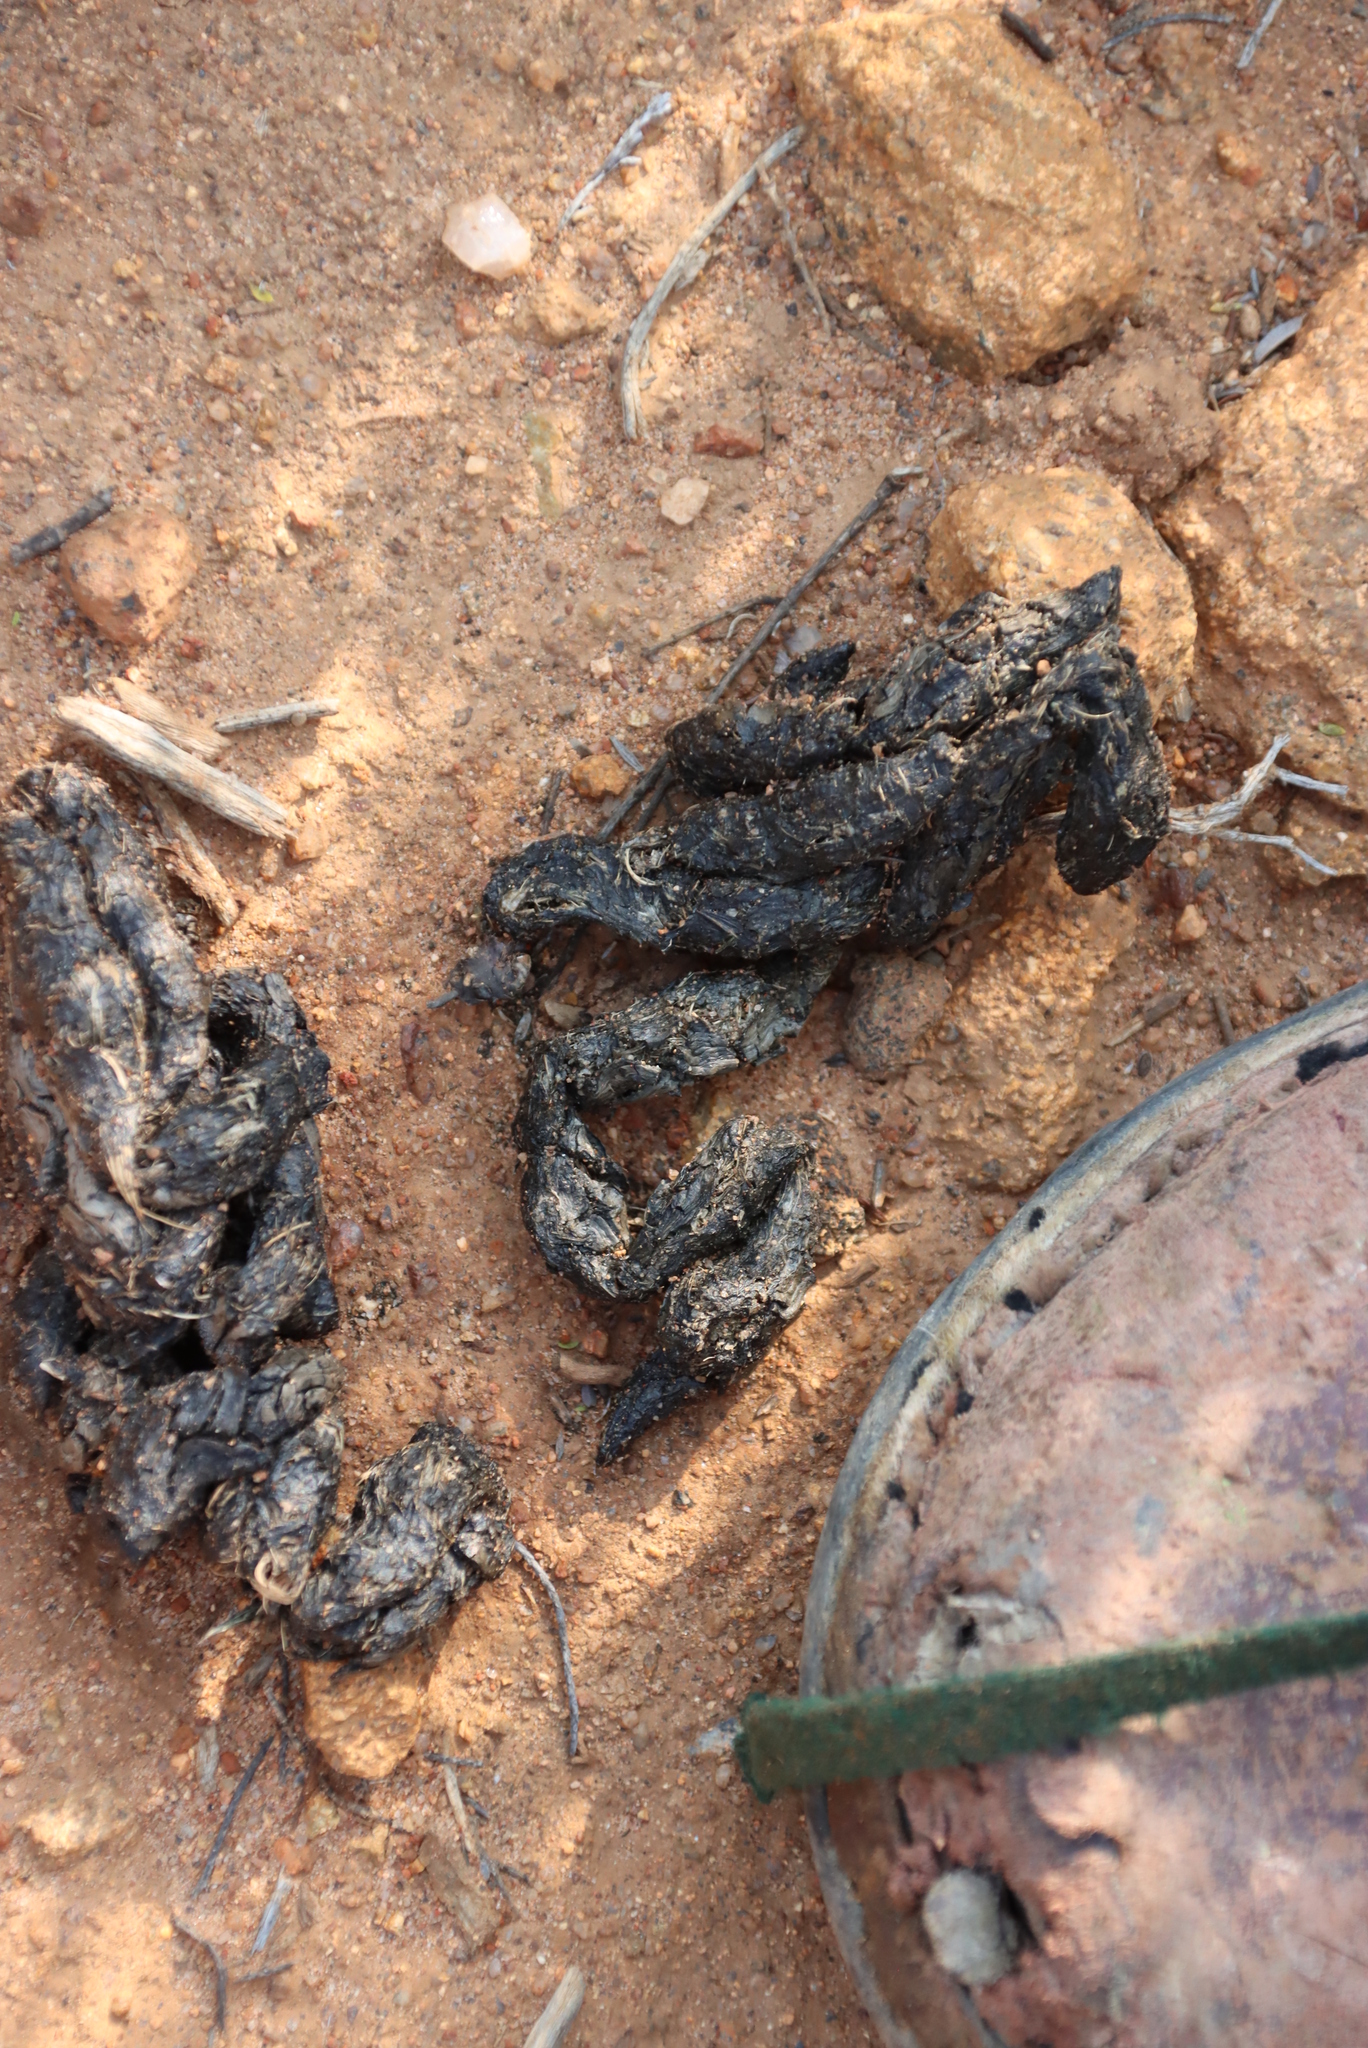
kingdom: Animalia
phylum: Chordata
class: Mammalia
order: Rodentia
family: Hystricidae
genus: Hystrix
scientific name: Hystrix africaeaustralis
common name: Cape porcupine
